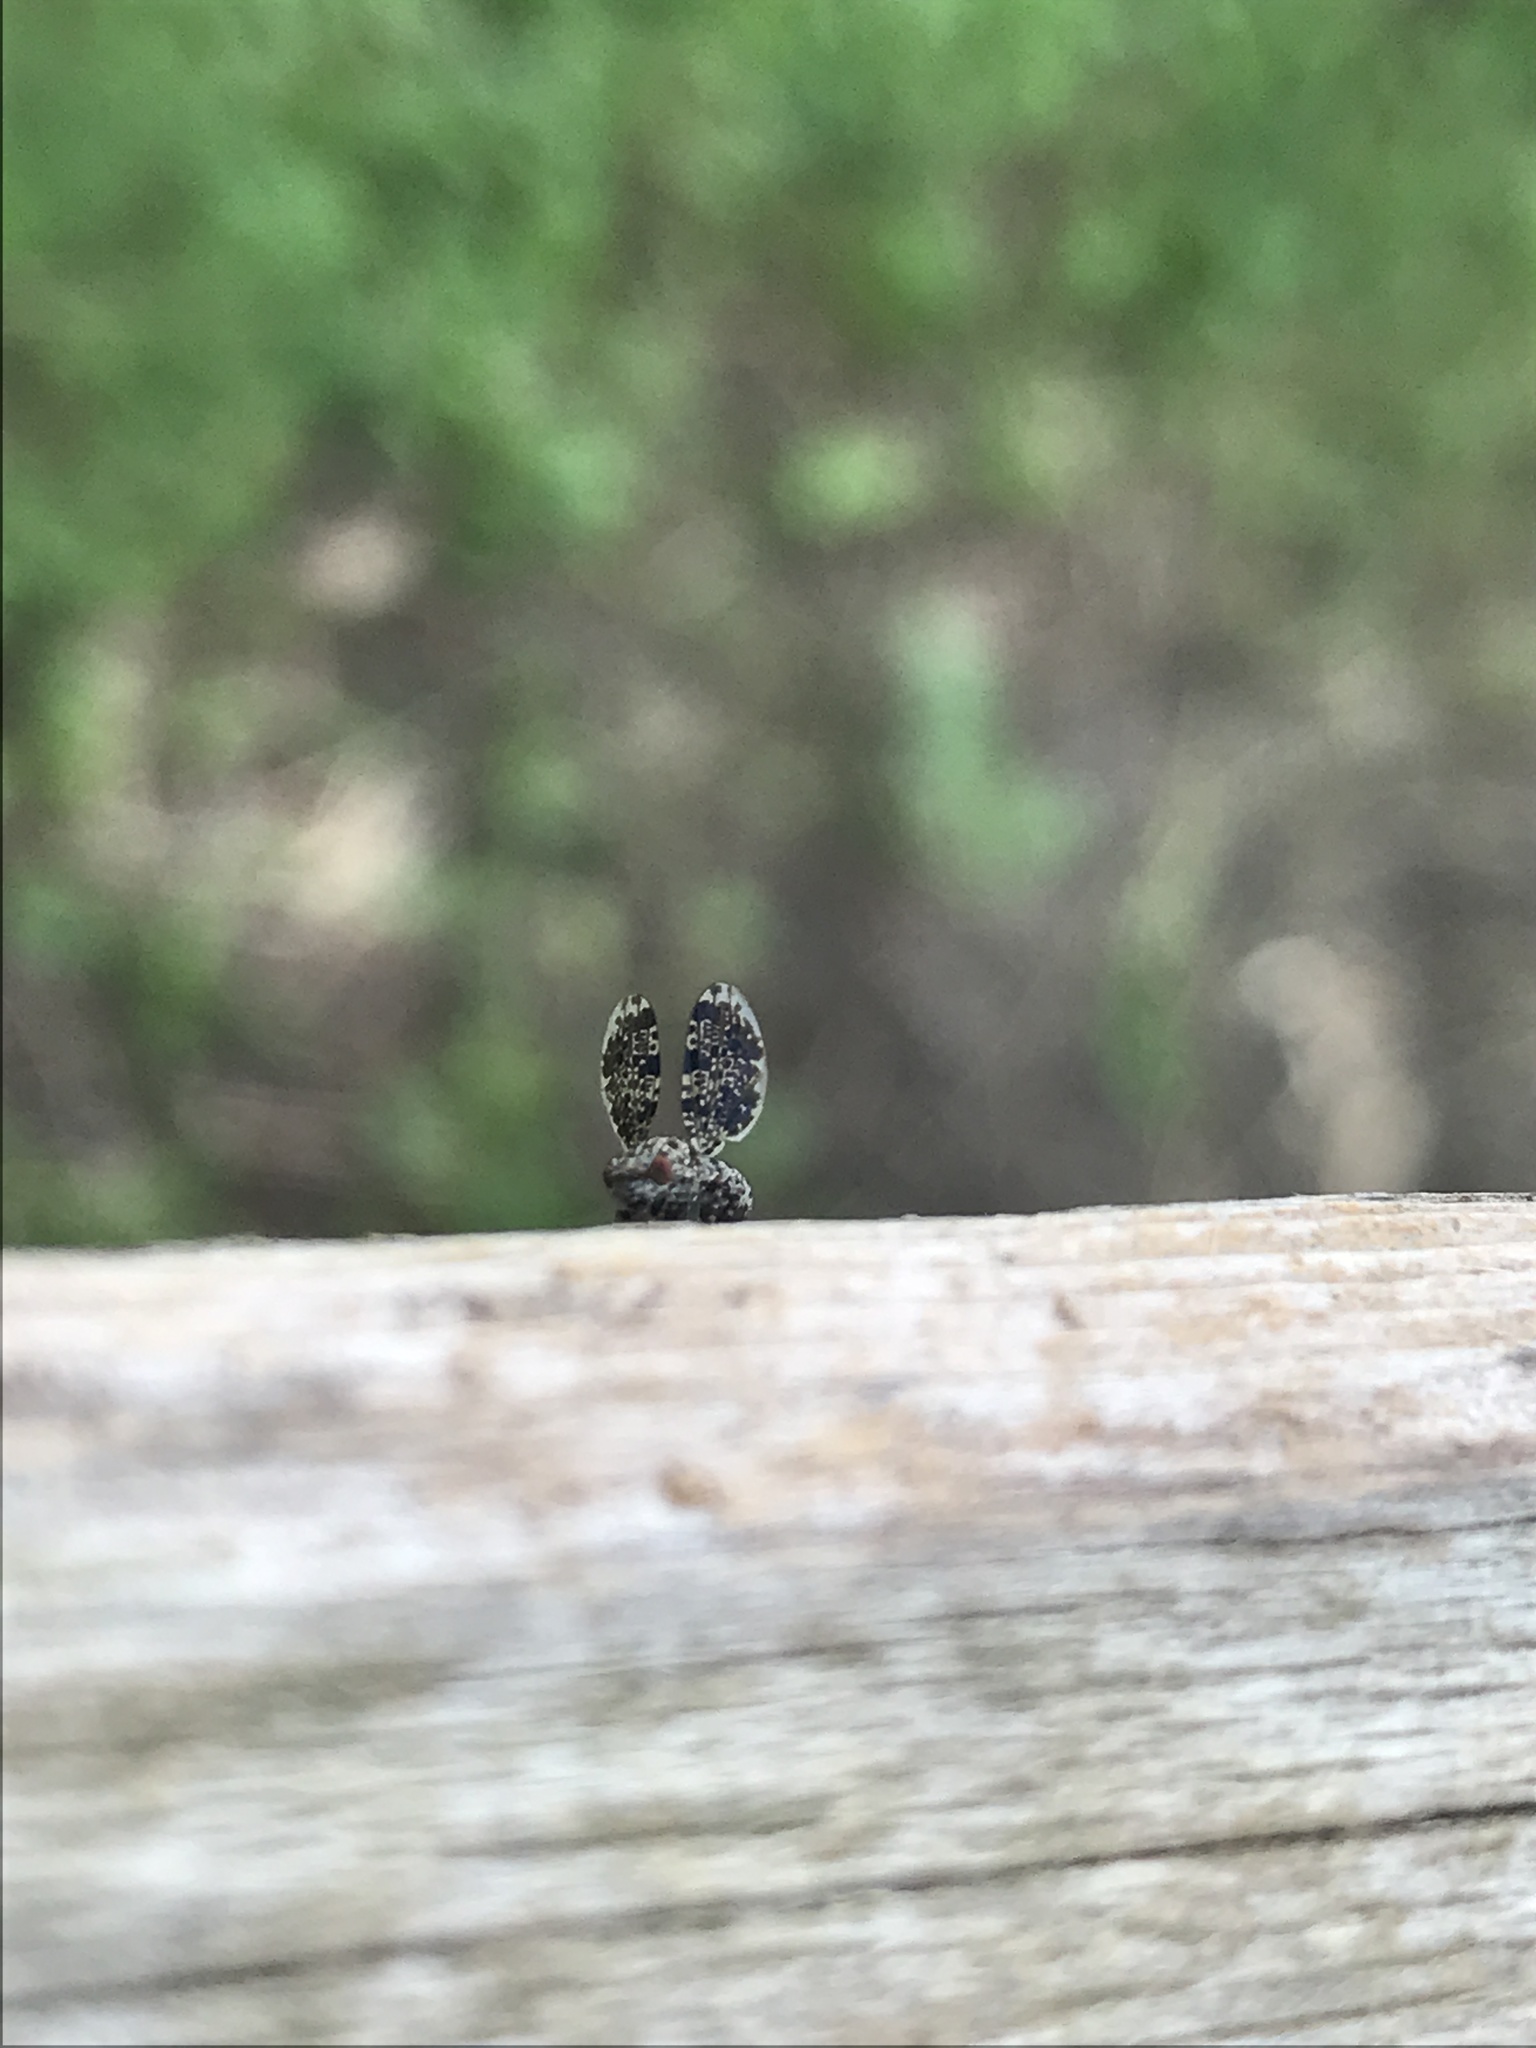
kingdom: Animalia
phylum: Arthropoda
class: Insecta
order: Diptera
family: Ulidiidae
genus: Callopistromyia
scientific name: Callopistromyia annulipes
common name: Peacock fly
